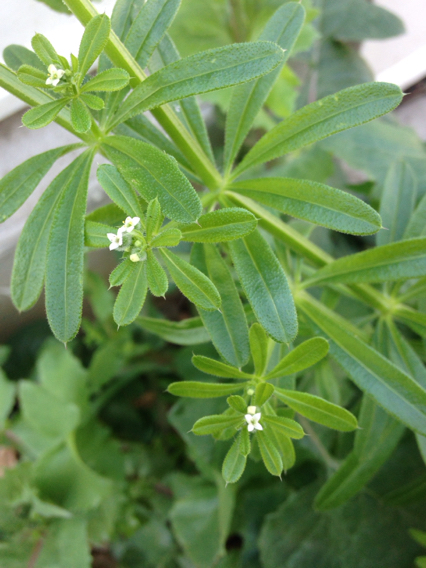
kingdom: Plantae
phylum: Tracheophyta
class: Magnoliopsida
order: Gentianales
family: Rubiaceae
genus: Galium
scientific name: Galium aparine
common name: Cleavers
